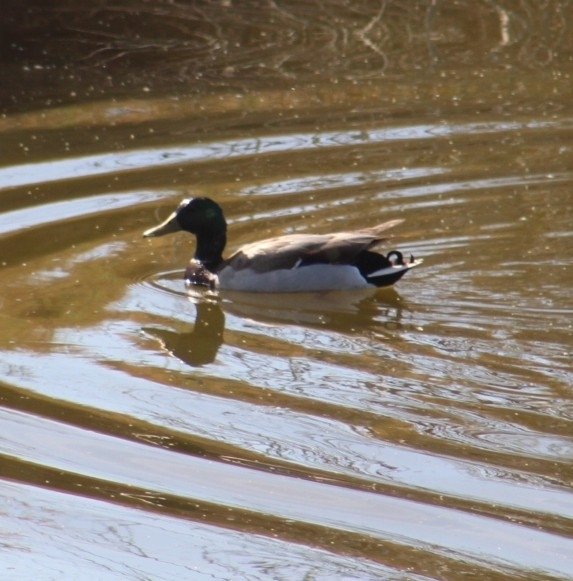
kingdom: Animalia
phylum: Chordata
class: Aves
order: Anseriformes
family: Anatidae
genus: Anas
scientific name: Anas platyrhynchos
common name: Mallard
